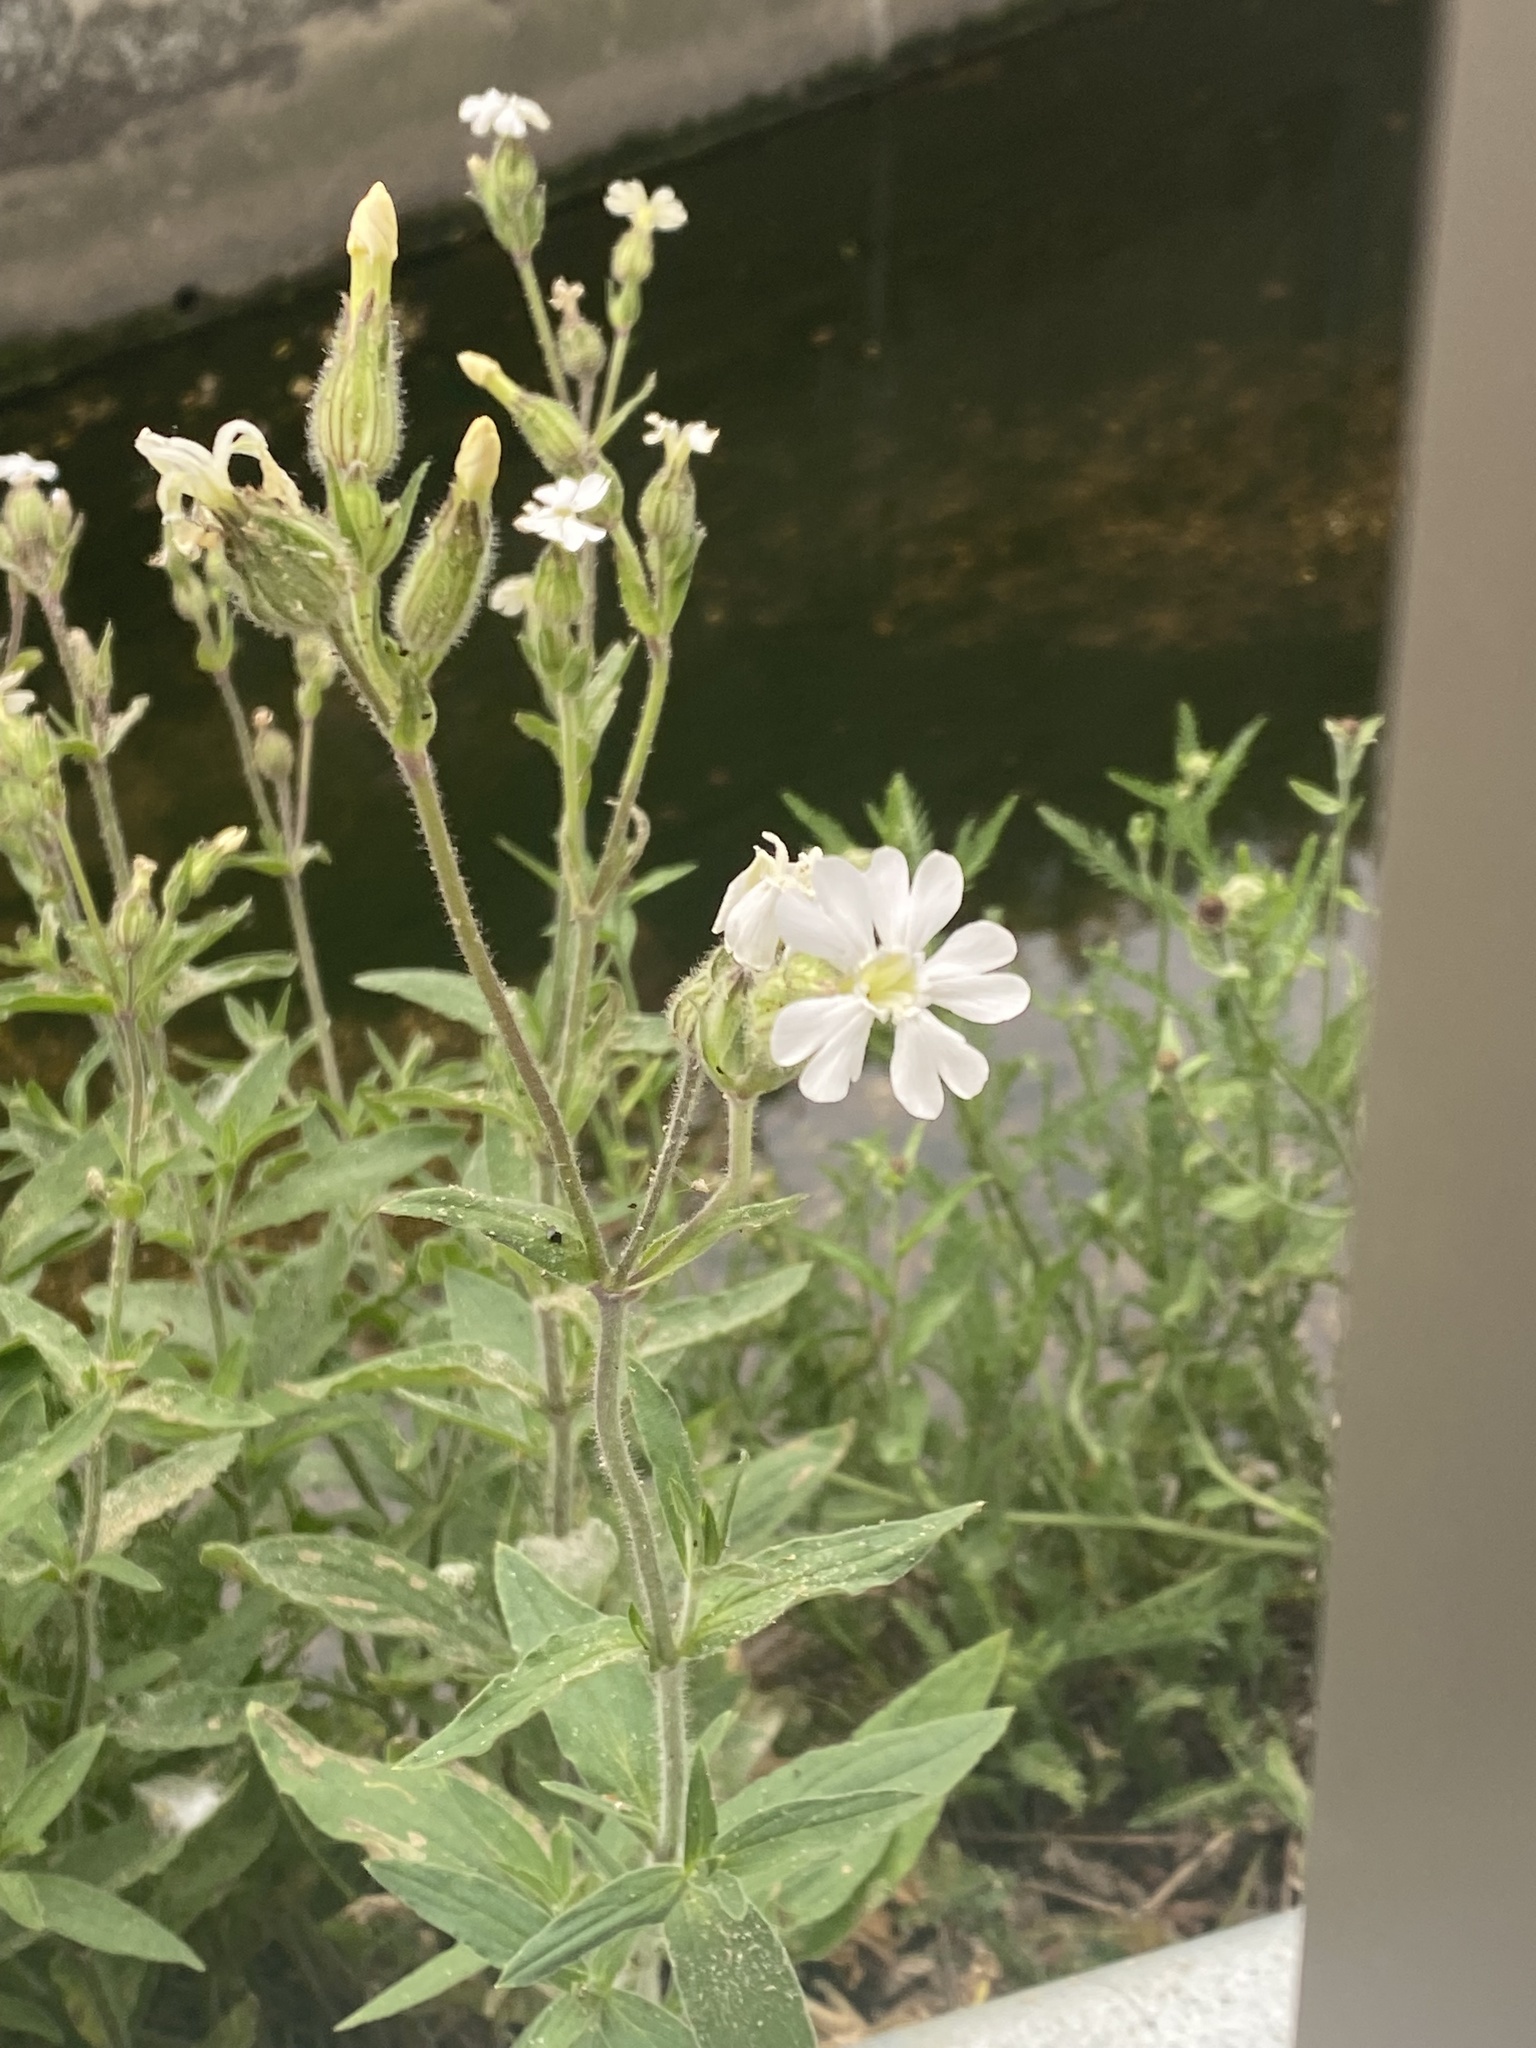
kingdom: Plantae
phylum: Tracheophyta
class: Magnoliopsida
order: Caryophyllales
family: Caryophyllaceae
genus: Silene
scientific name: Silene latifolia
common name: White campion
